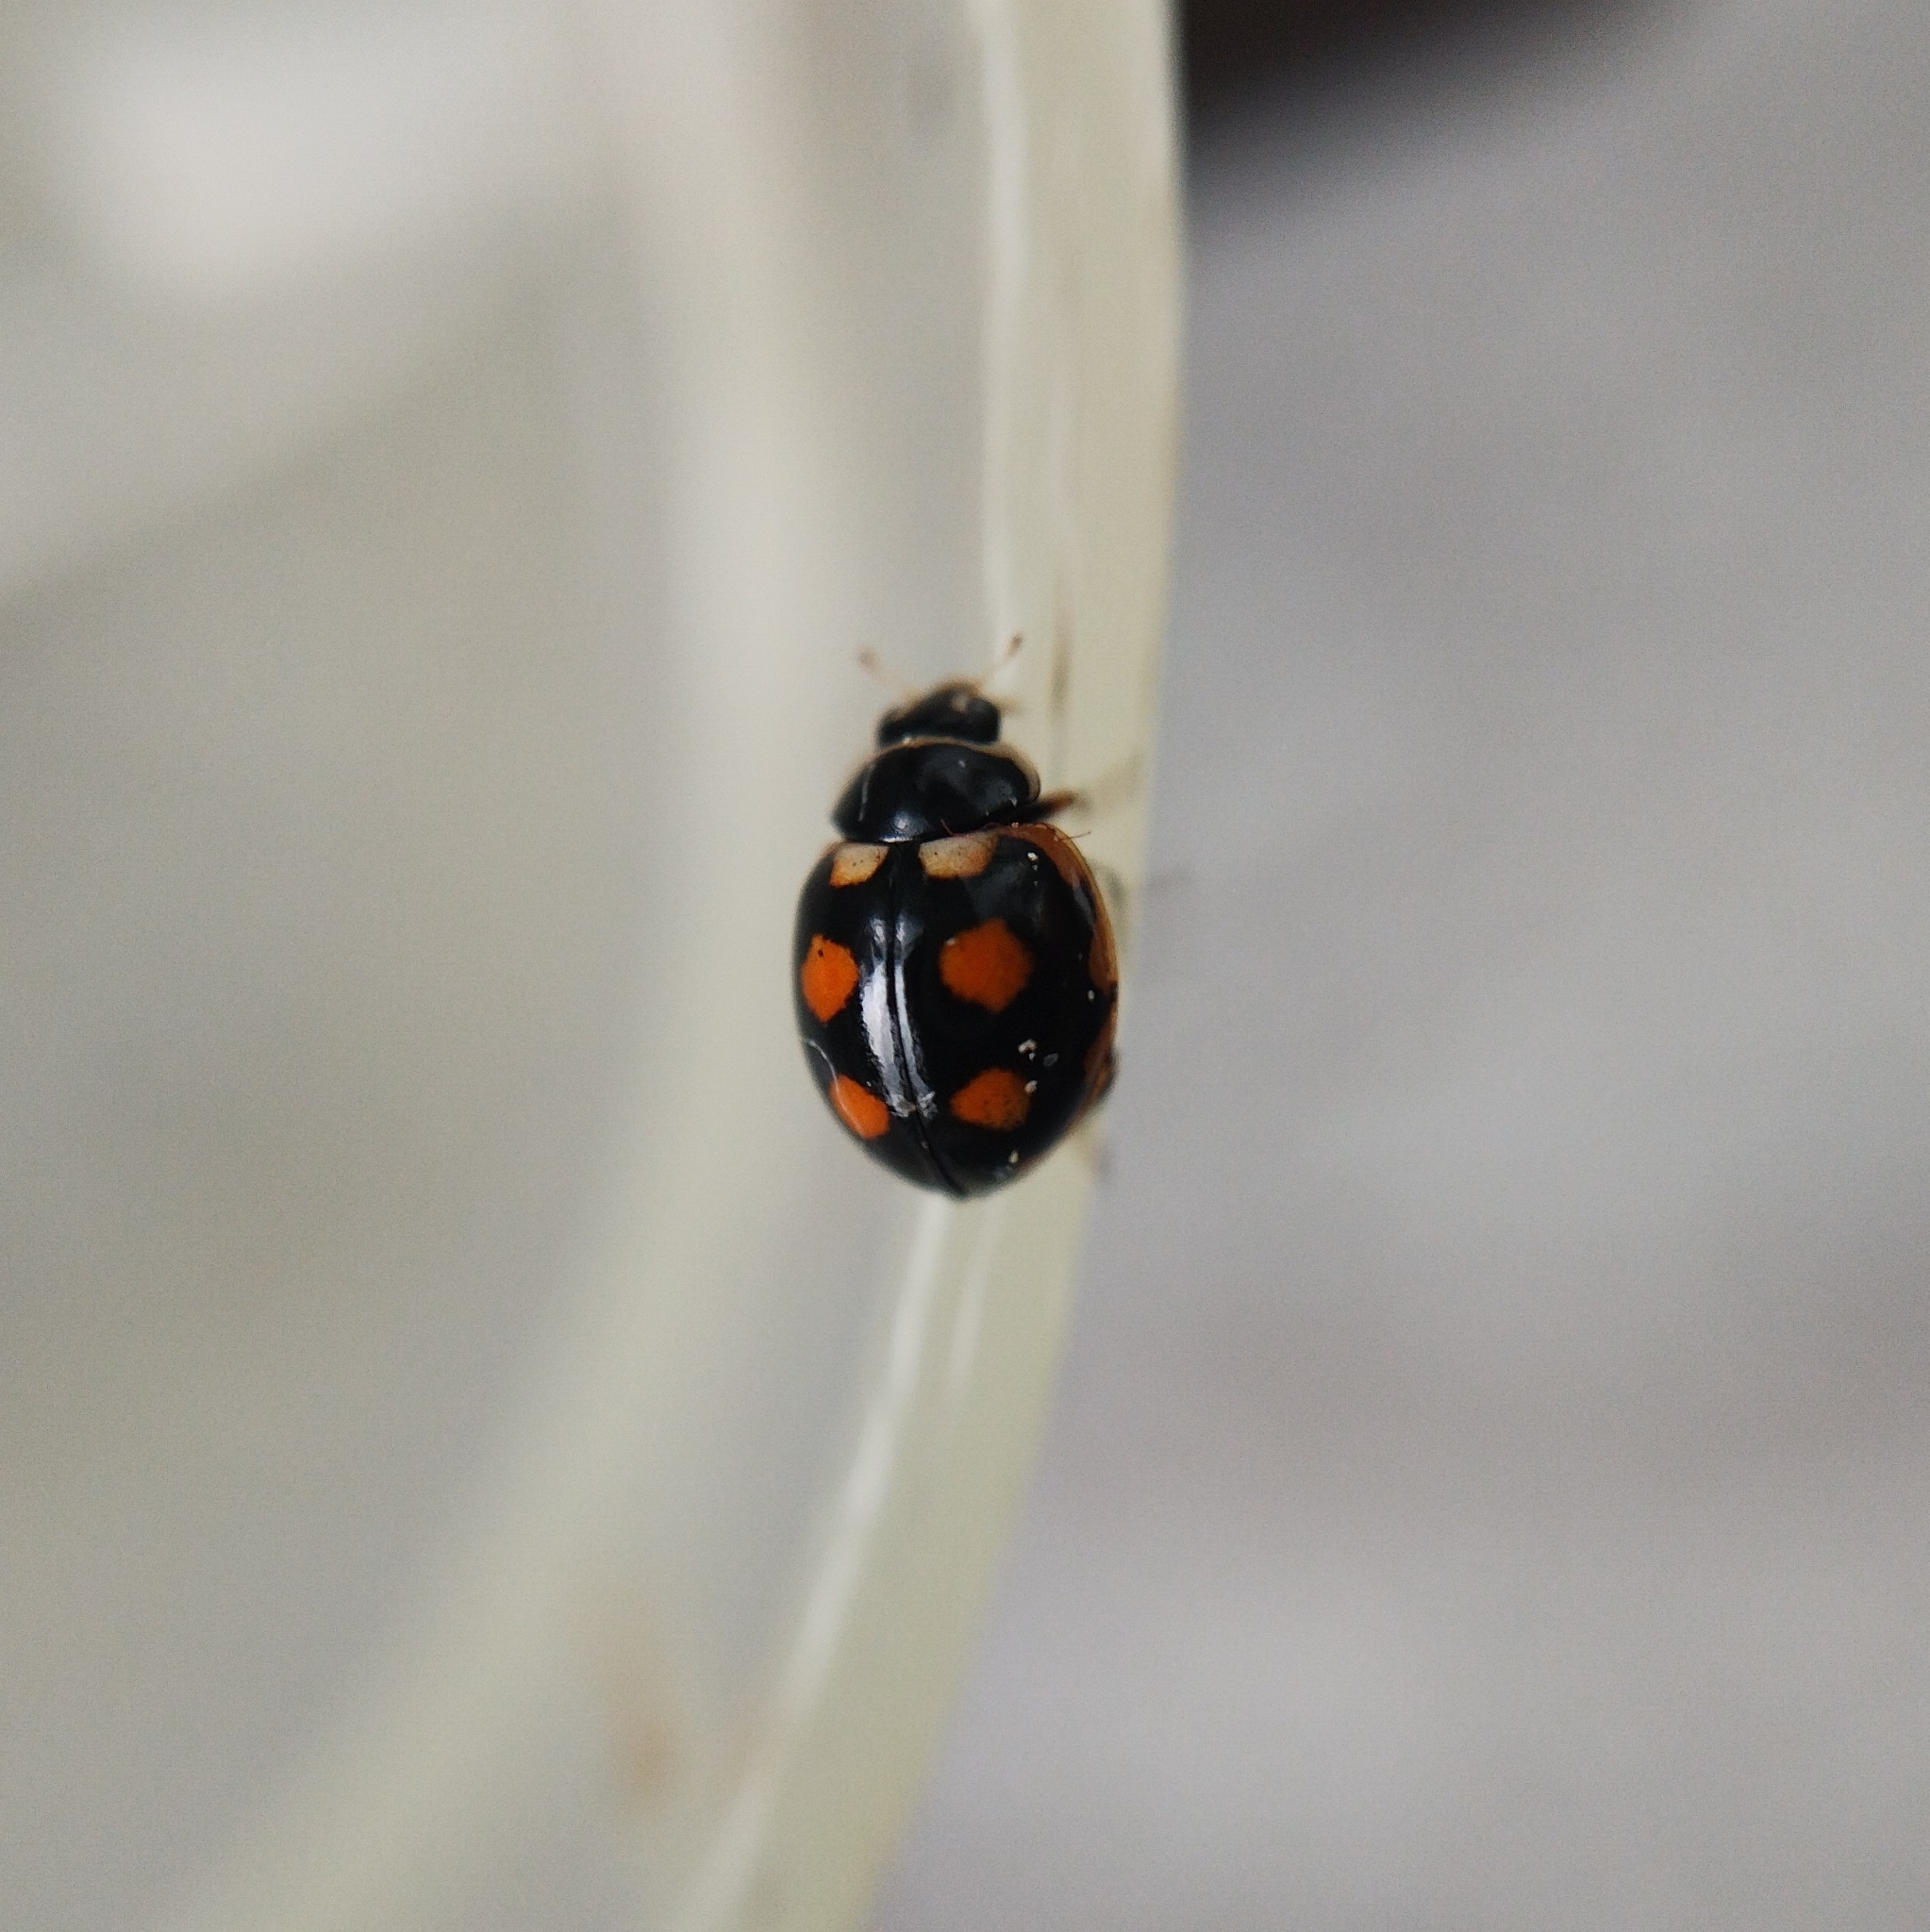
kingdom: Animalia
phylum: Arthropoda
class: Insecta
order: Coleoptera
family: Coccinellidae
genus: Coccinula
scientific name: Coccinula sinuatomarginata
